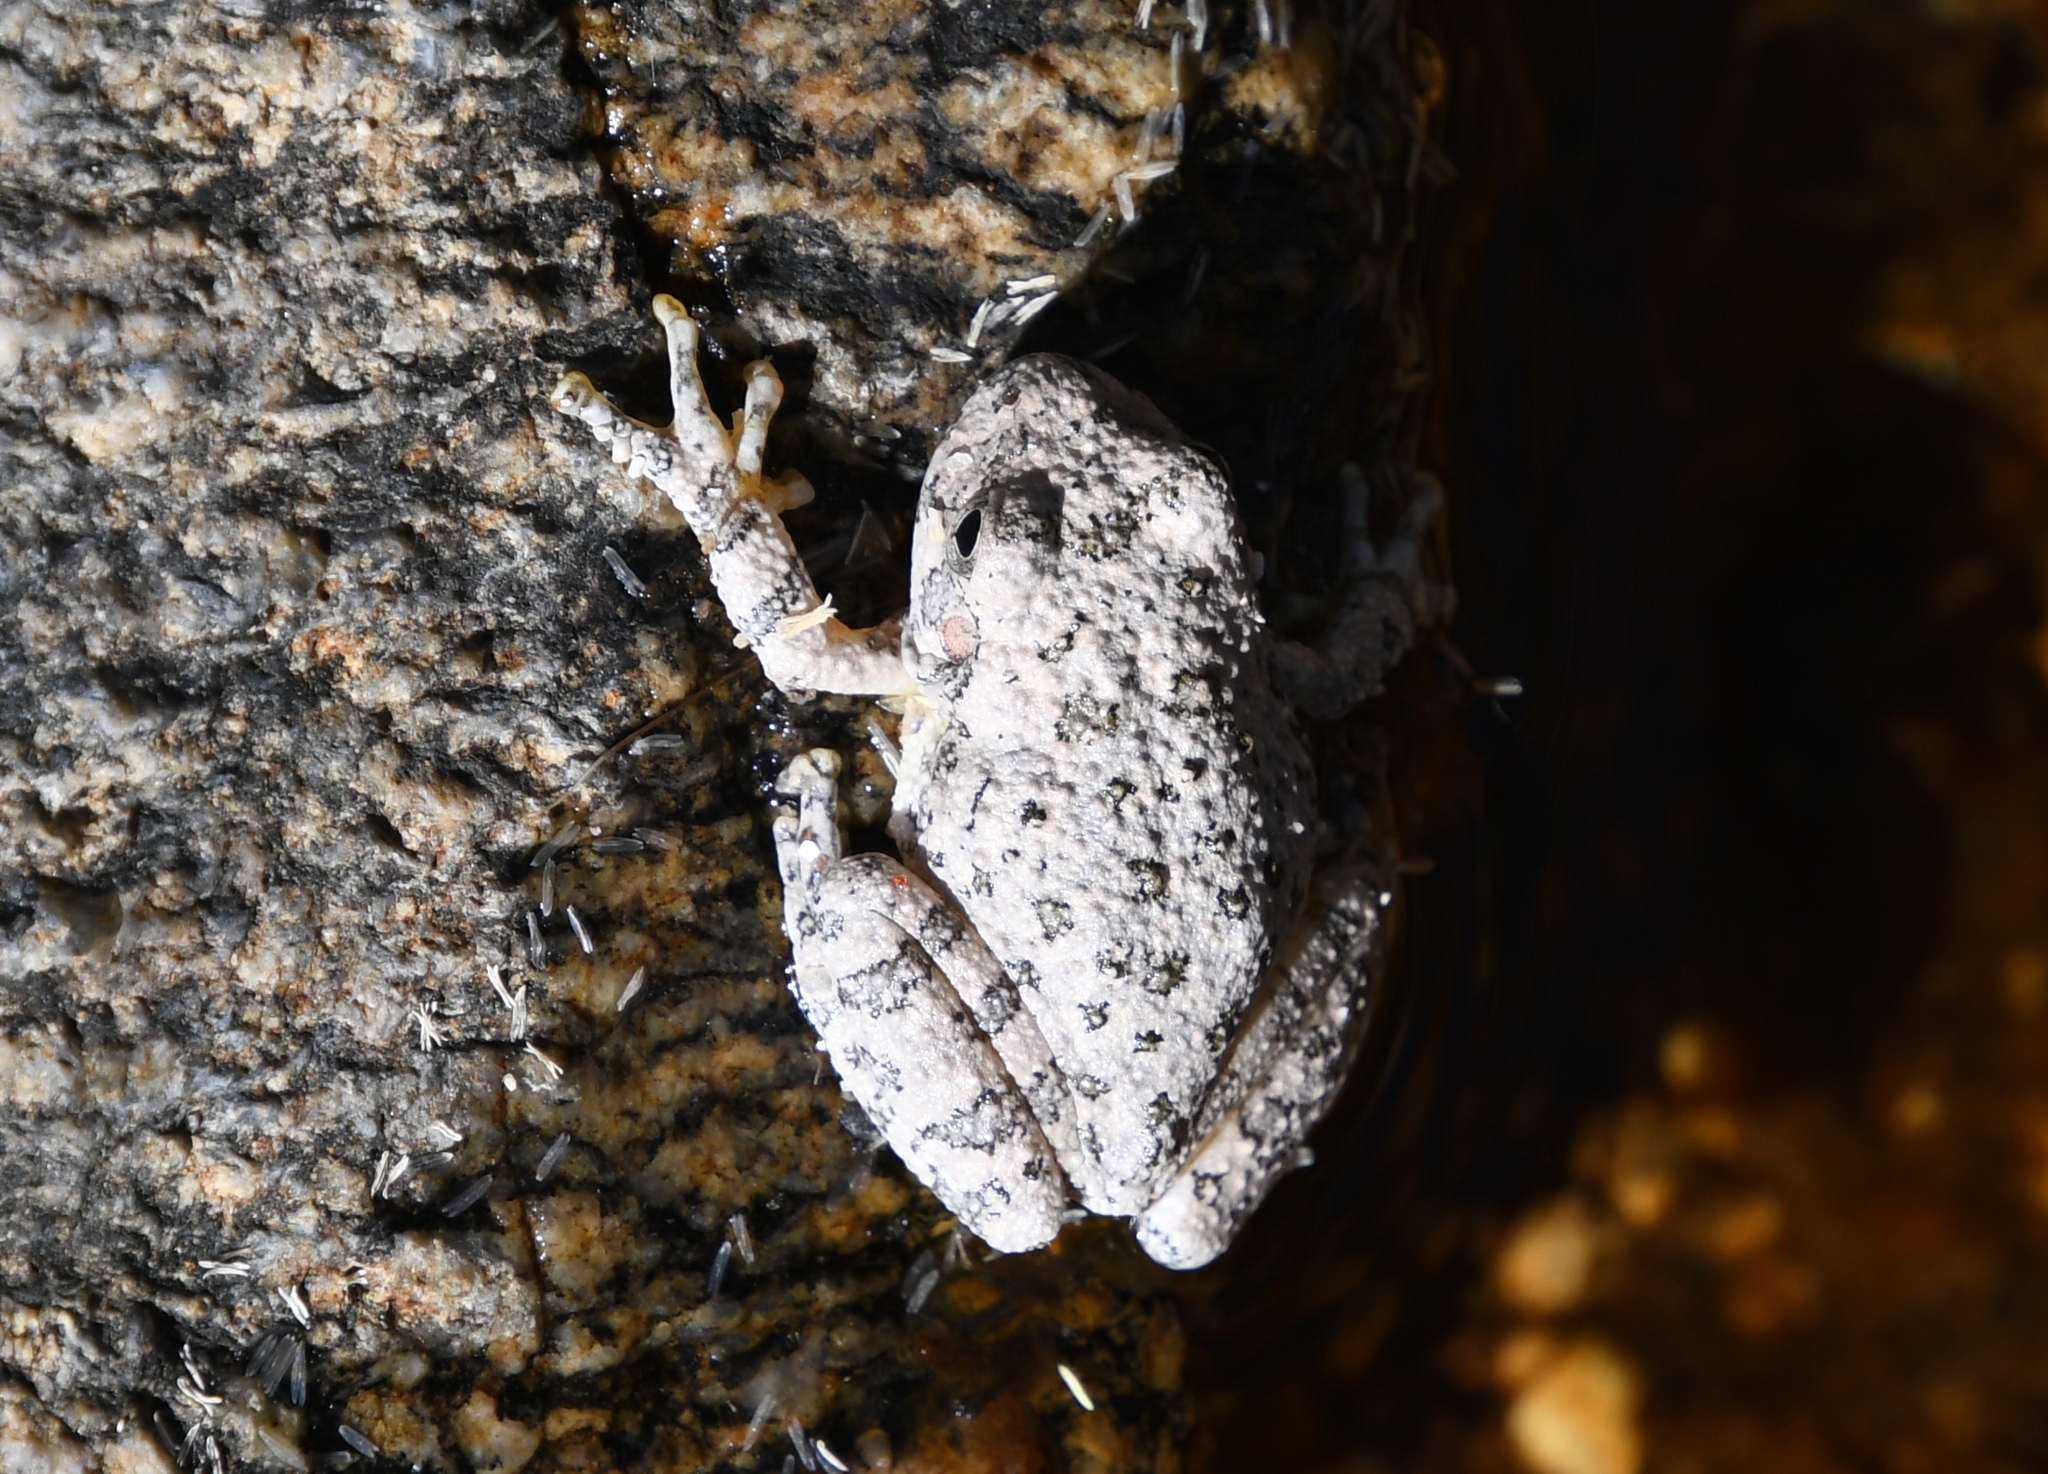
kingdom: Animalia
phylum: Chordata
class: Amphibia
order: Anura
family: Hylidae
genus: Dryophytes
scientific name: Dryophytes arenicolor
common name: Canyon treefrog
